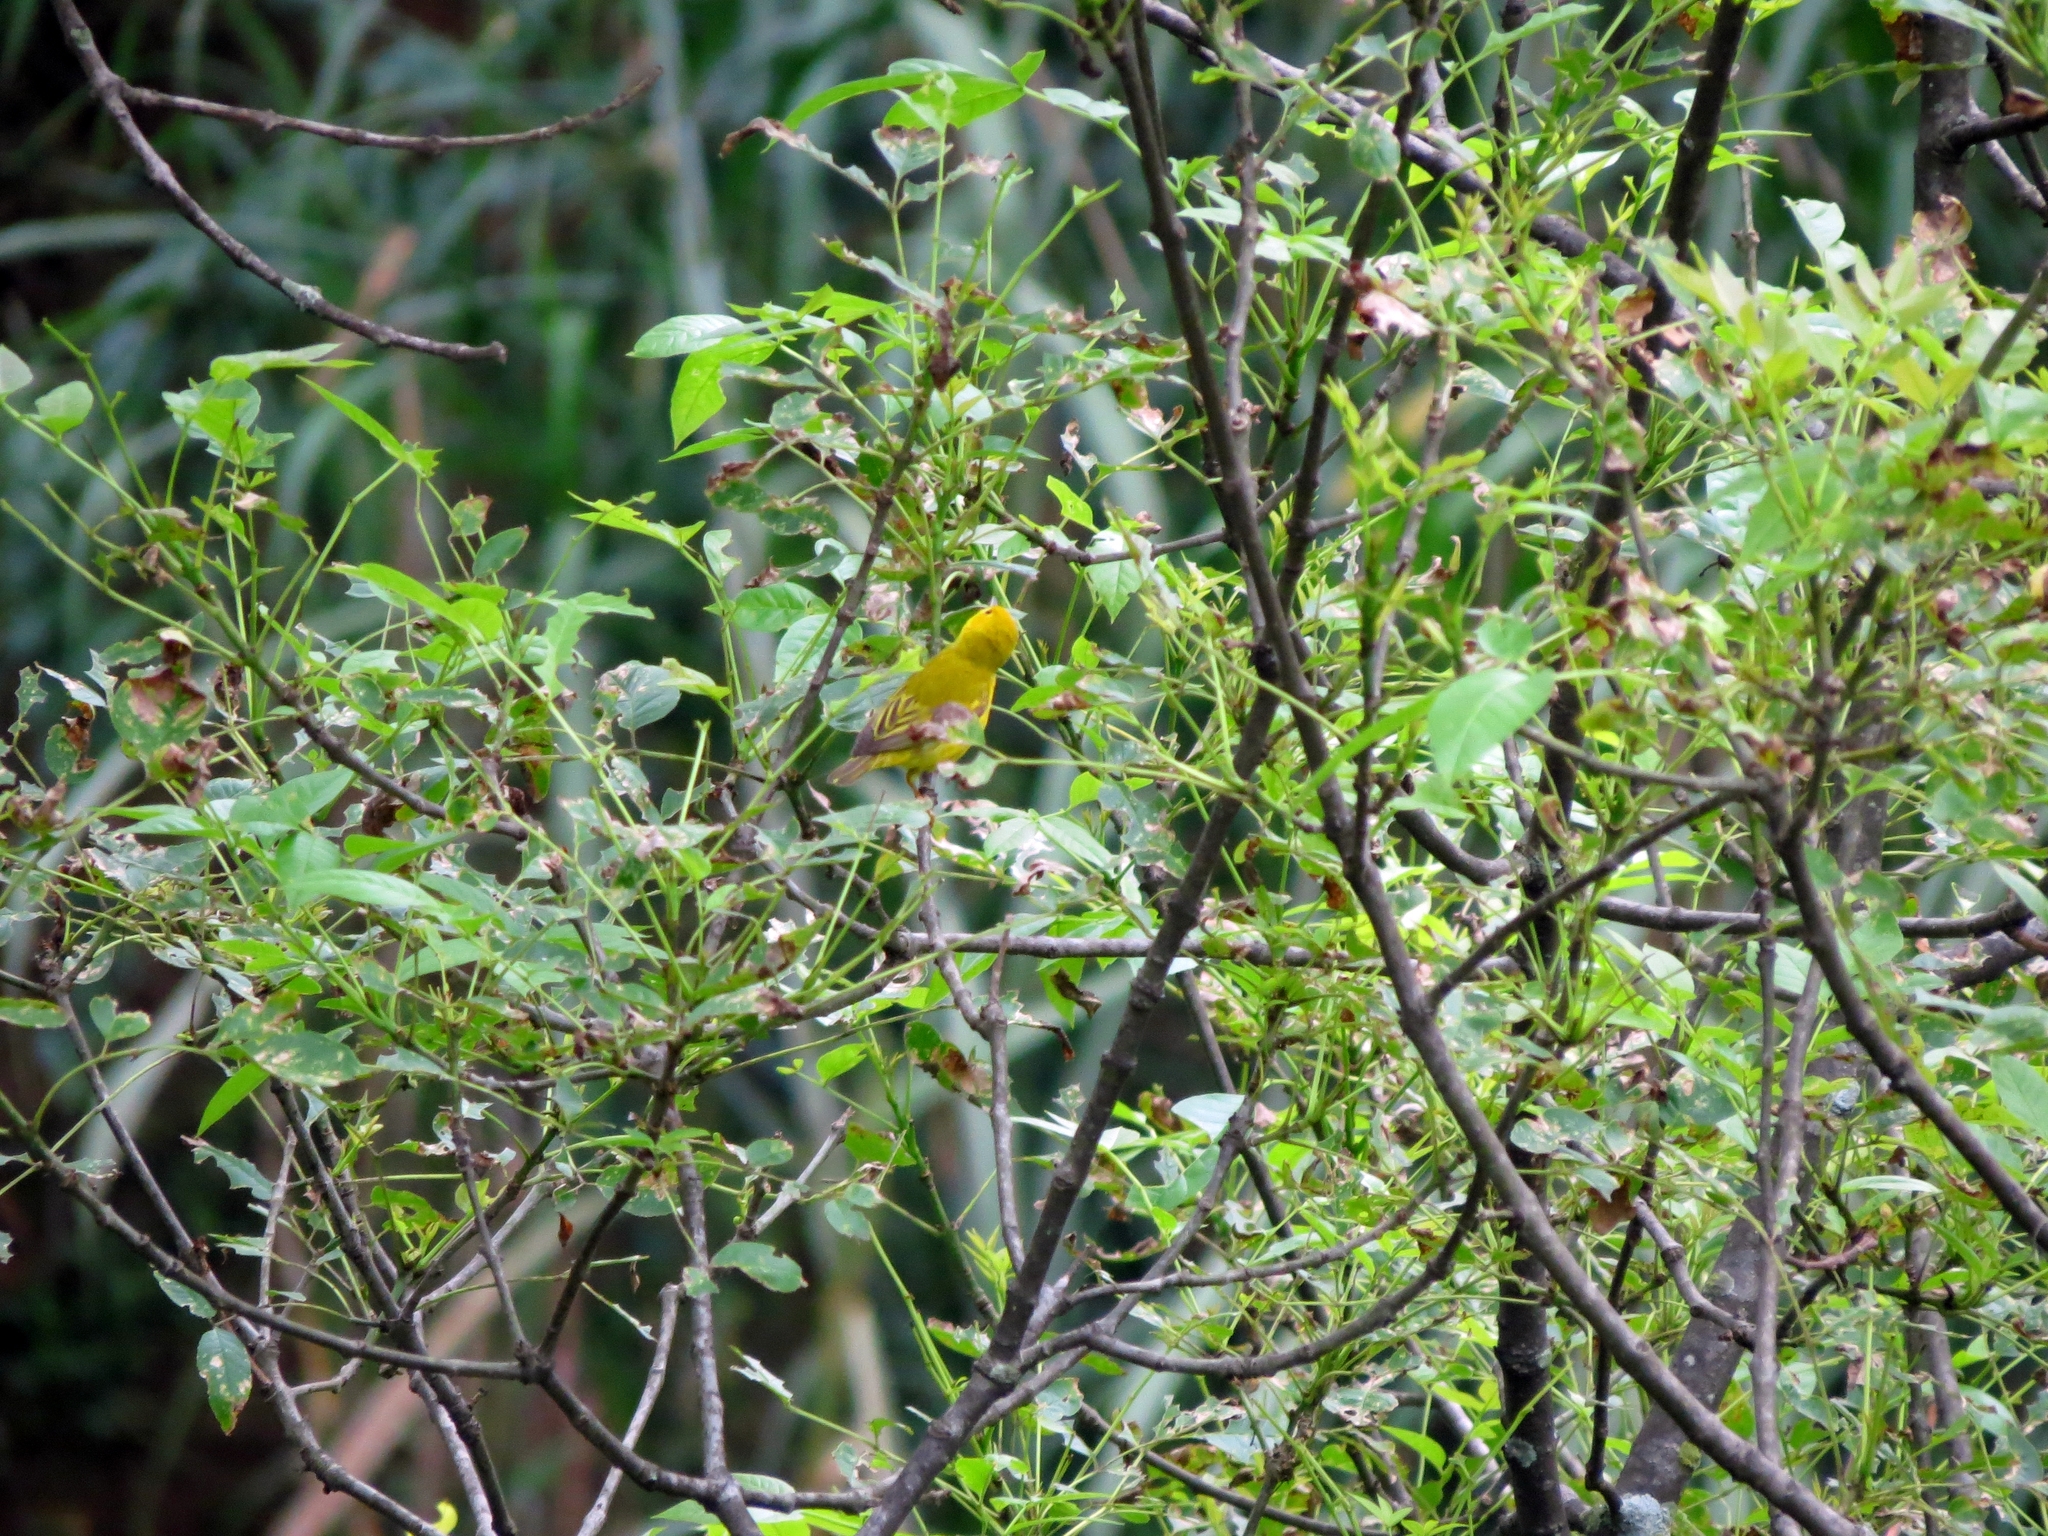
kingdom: Animalia
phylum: Chordata
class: Aves
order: Passeriformes
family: Parulidae
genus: Setophaga
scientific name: Setophaga petechia
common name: Yellow warbler
